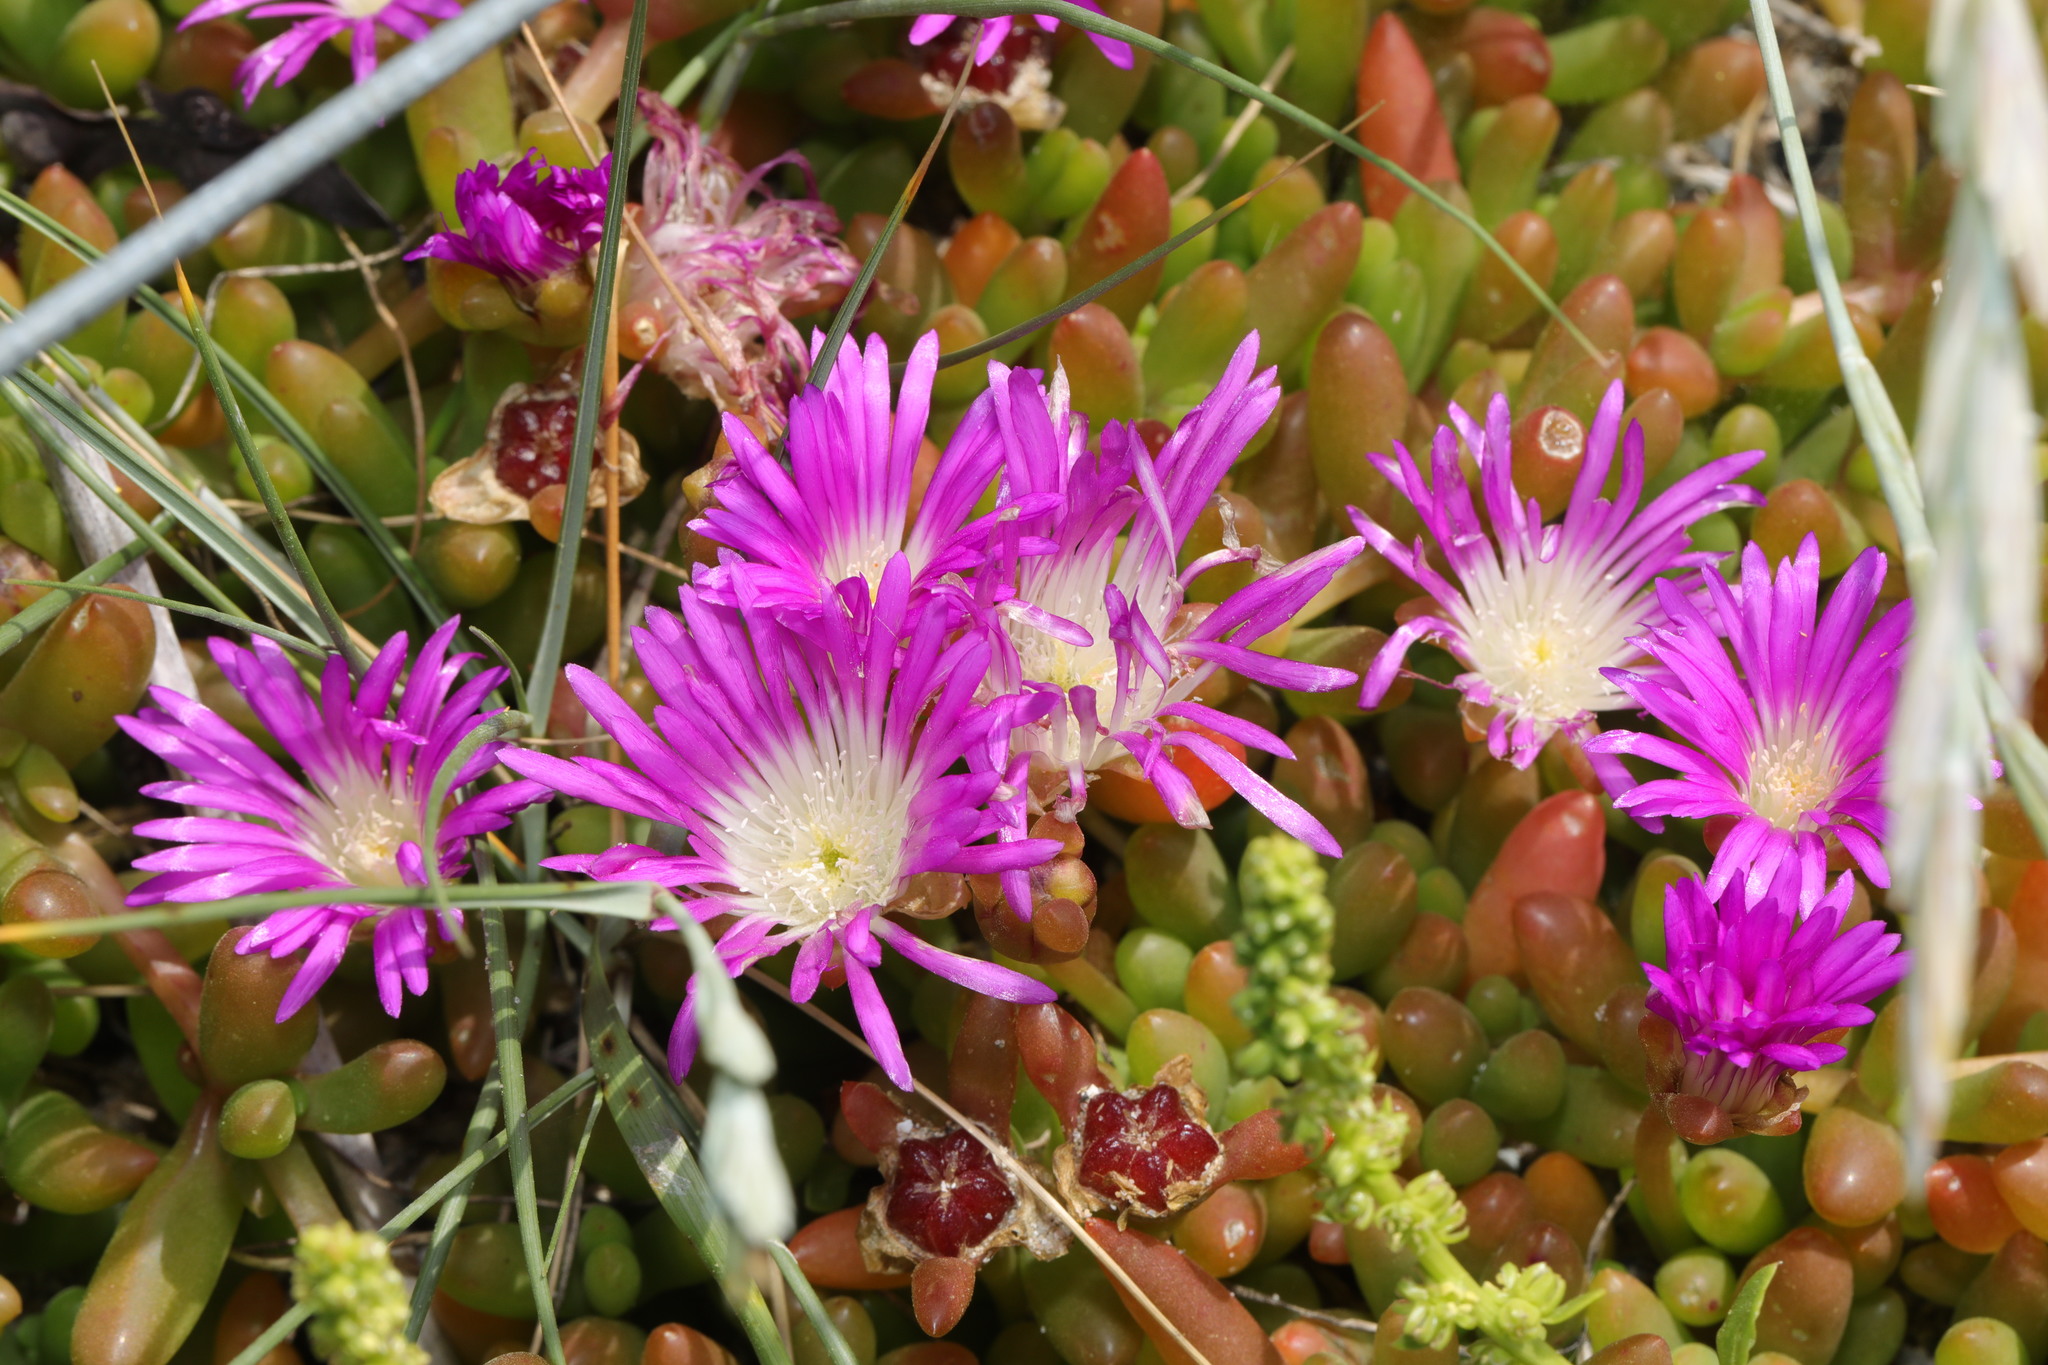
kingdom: Plantae
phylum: Tracheophyta
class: Magnoliopsida
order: Caryophyllales
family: Aizoaceae
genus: Disphyma
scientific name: Disphyma crassifolium
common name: Purple dewplant
